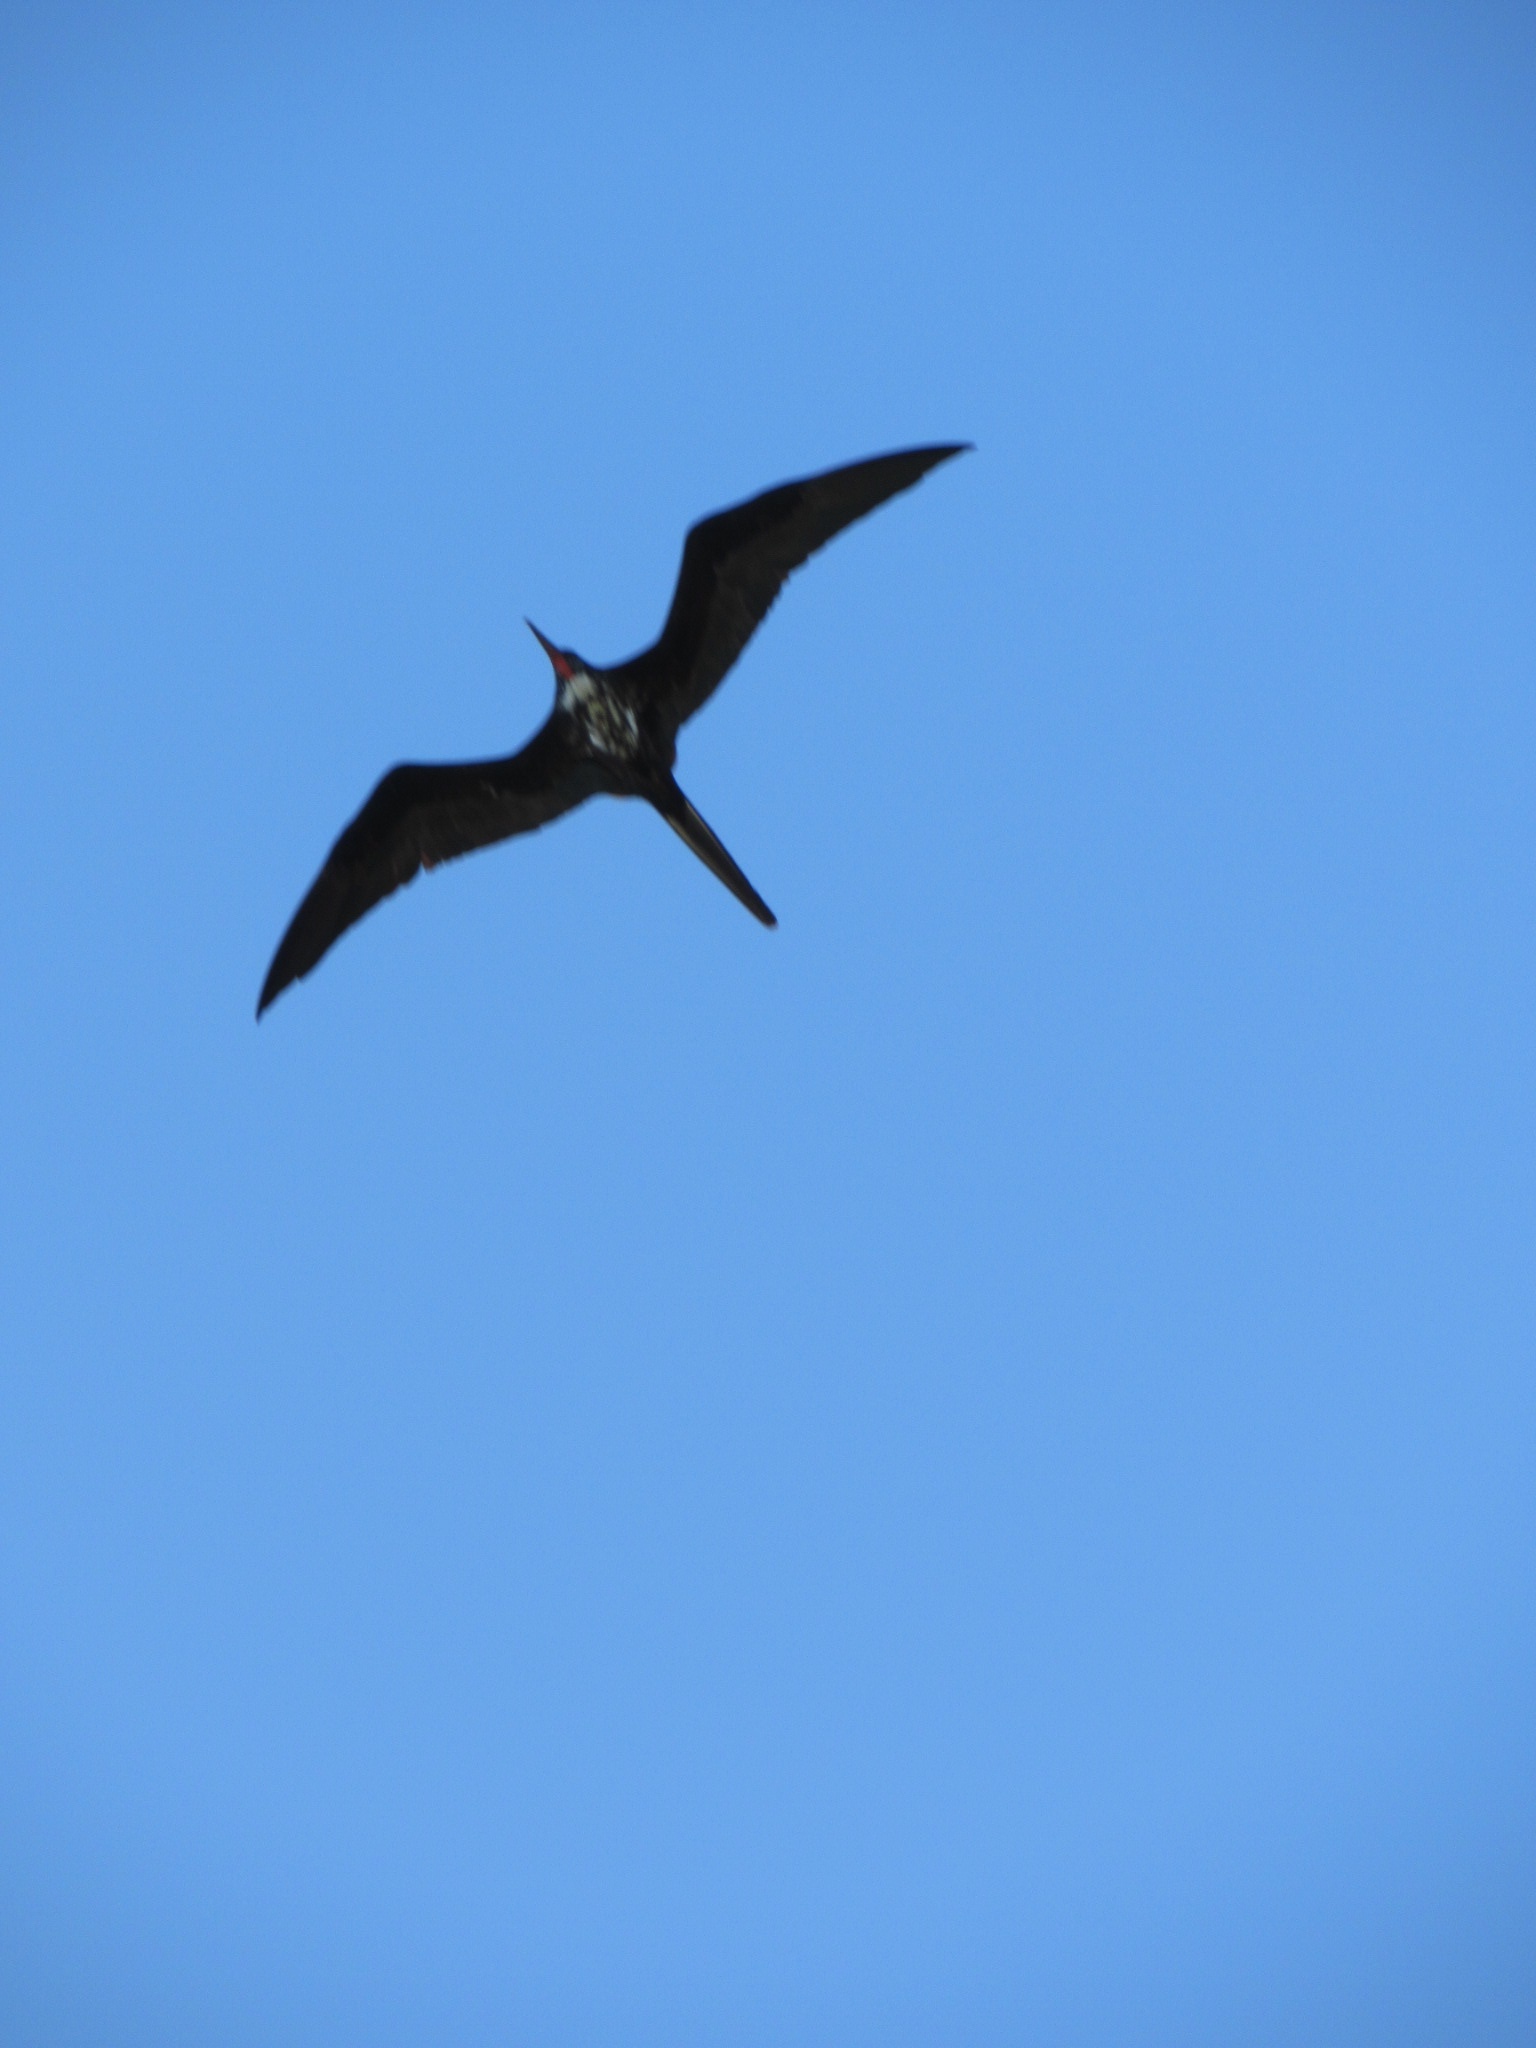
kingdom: Animalia
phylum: Chordata
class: Aves
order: Suliformes
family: Fregatidae
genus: Fregata
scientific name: Fregata magnificens
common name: Magnificent frigatebird
